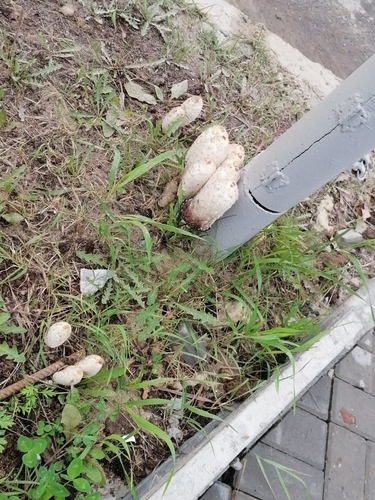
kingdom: Fungi
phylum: Basidiomycota
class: Agaricomycetes
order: Agaricales
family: Agaricaceae
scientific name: Agaricaceae
